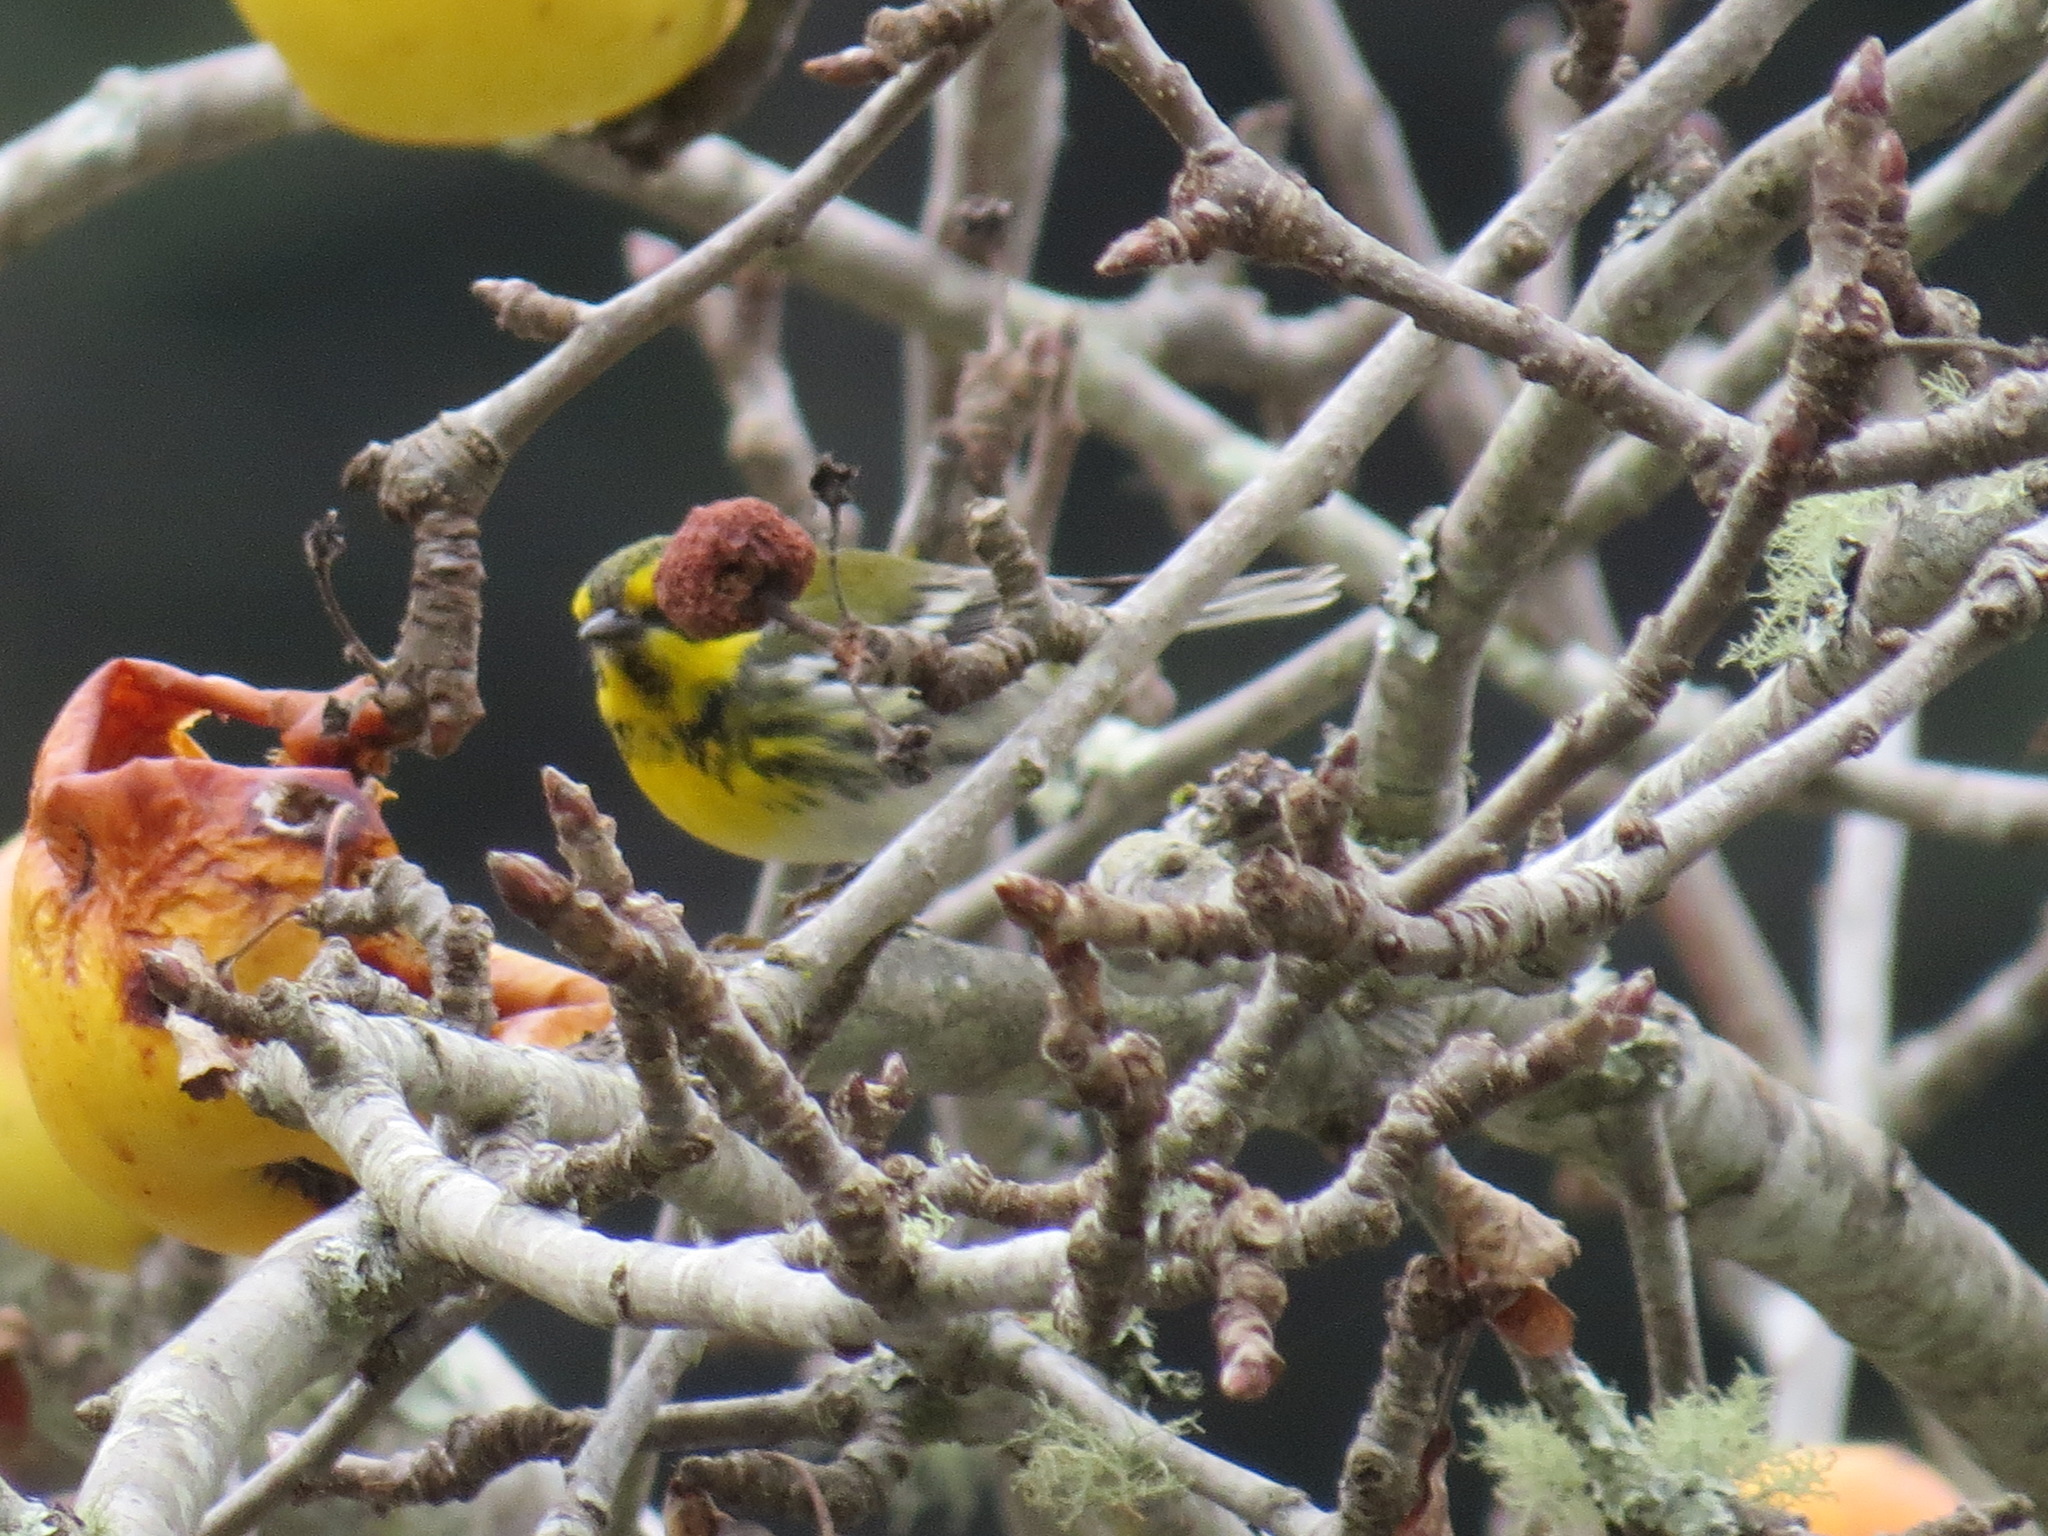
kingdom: Animalia
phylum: Chordata
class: Aves
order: Passeriformes
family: Parulidae
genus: Setophaga
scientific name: Setophaga townsendi
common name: Townsend's warbler
